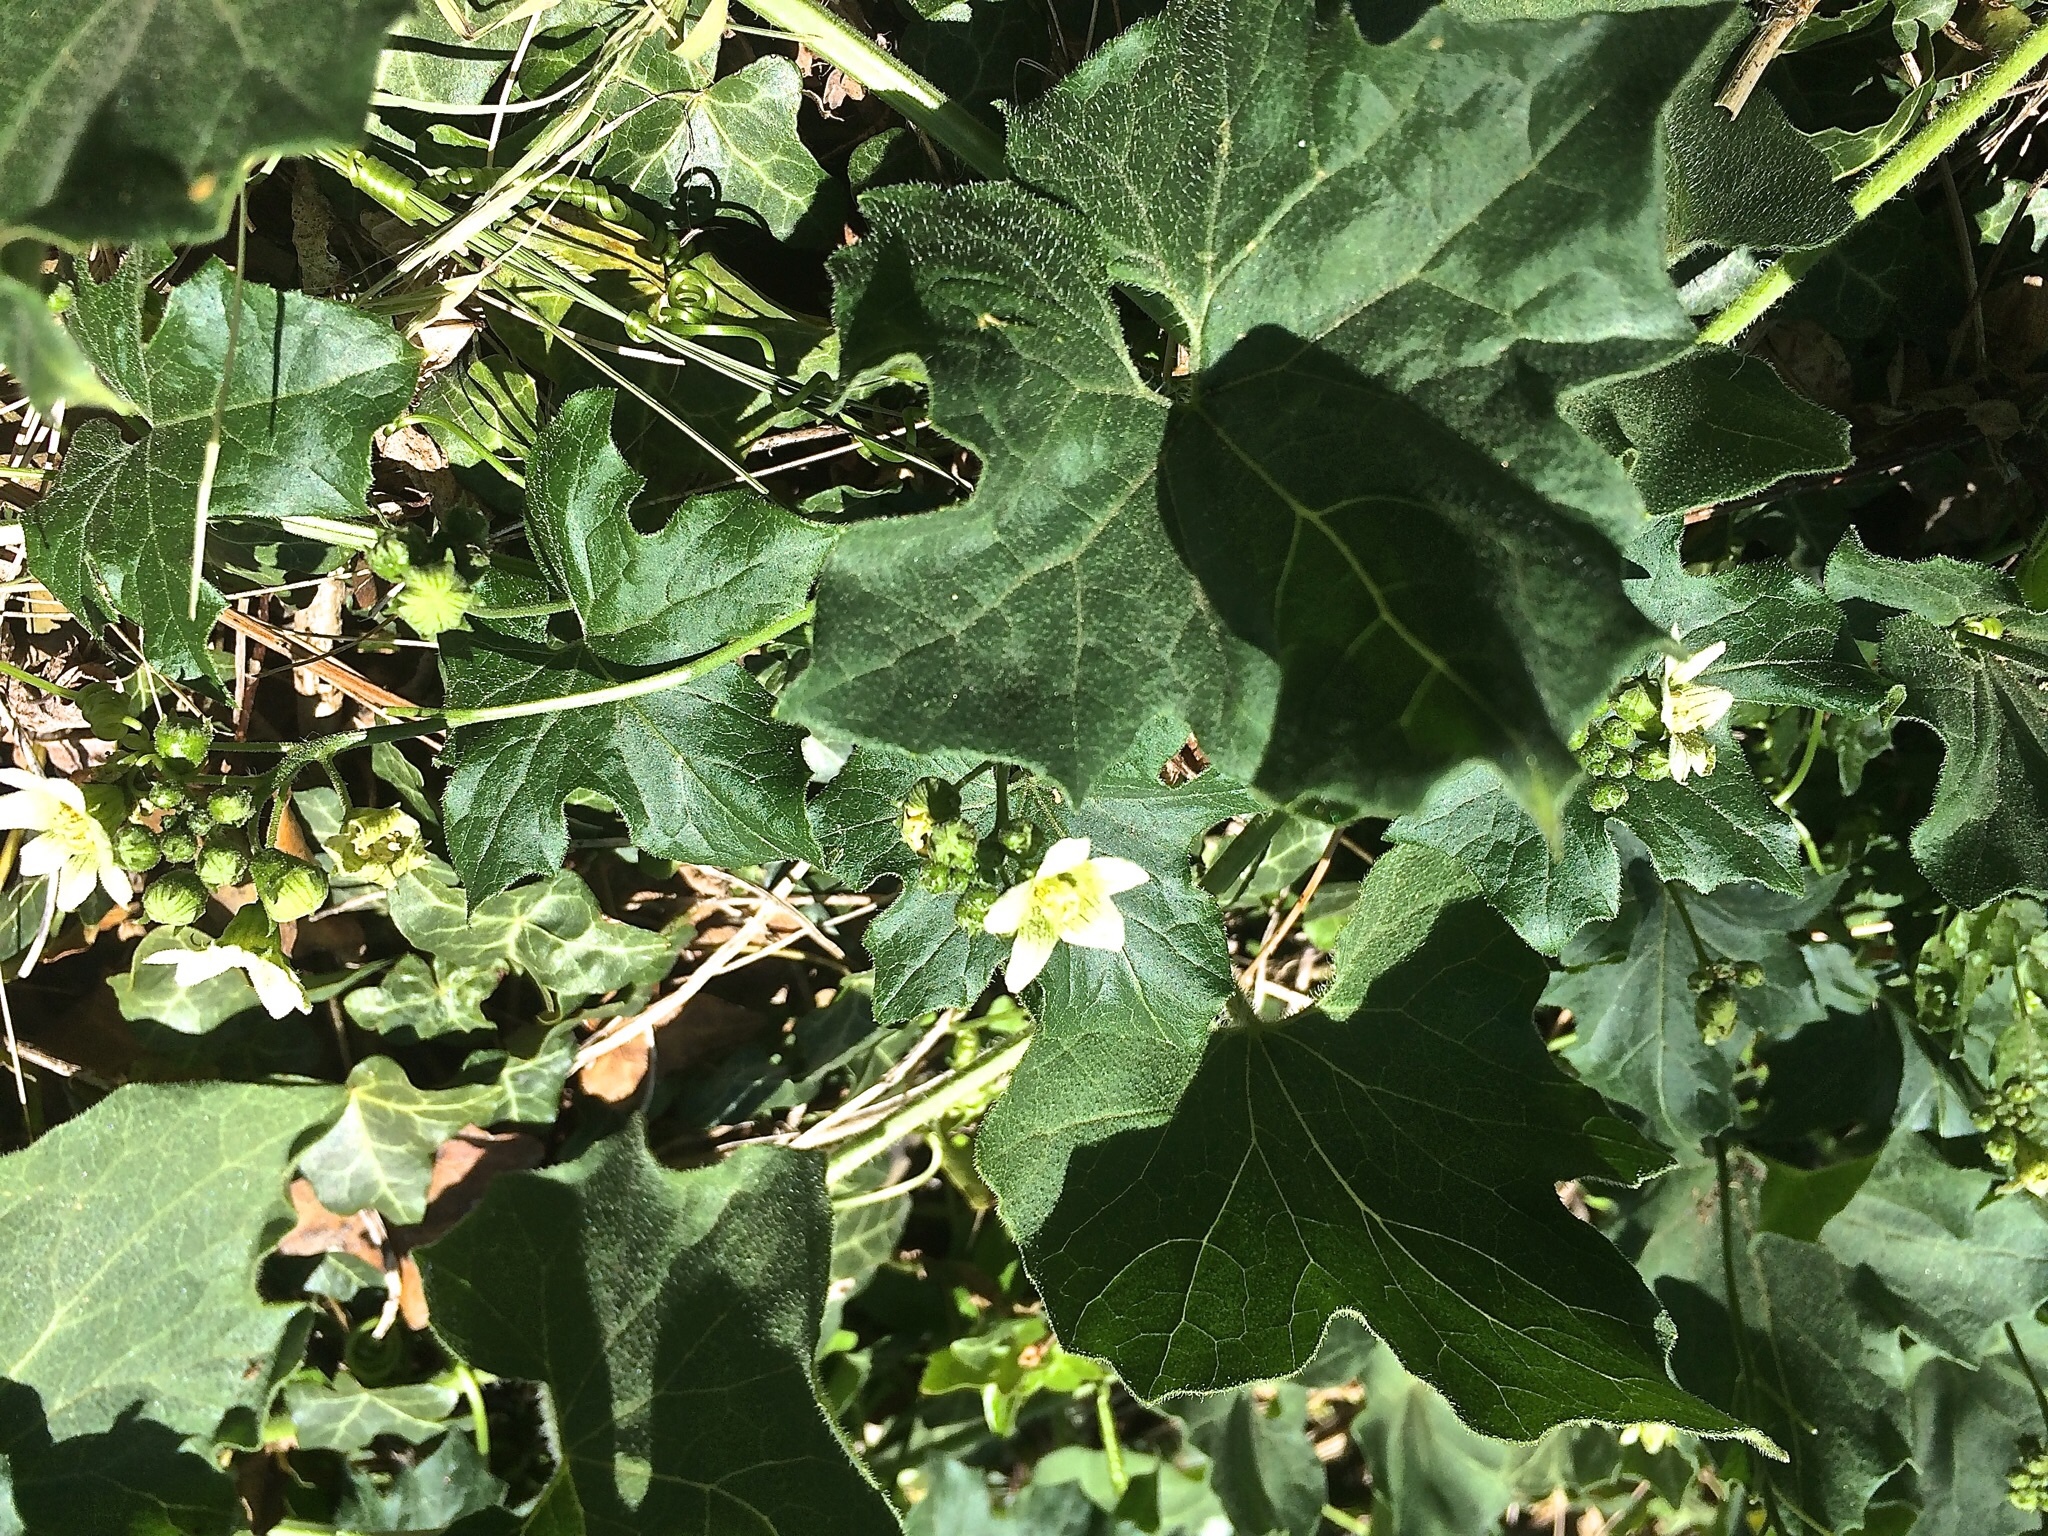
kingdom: Plantae
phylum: Tracheophyta
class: Magnoliopsida
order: Cucurbitales
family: Cucurbitaceae
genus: Bryonia
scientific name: Bryonia dioica
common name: White bryony
